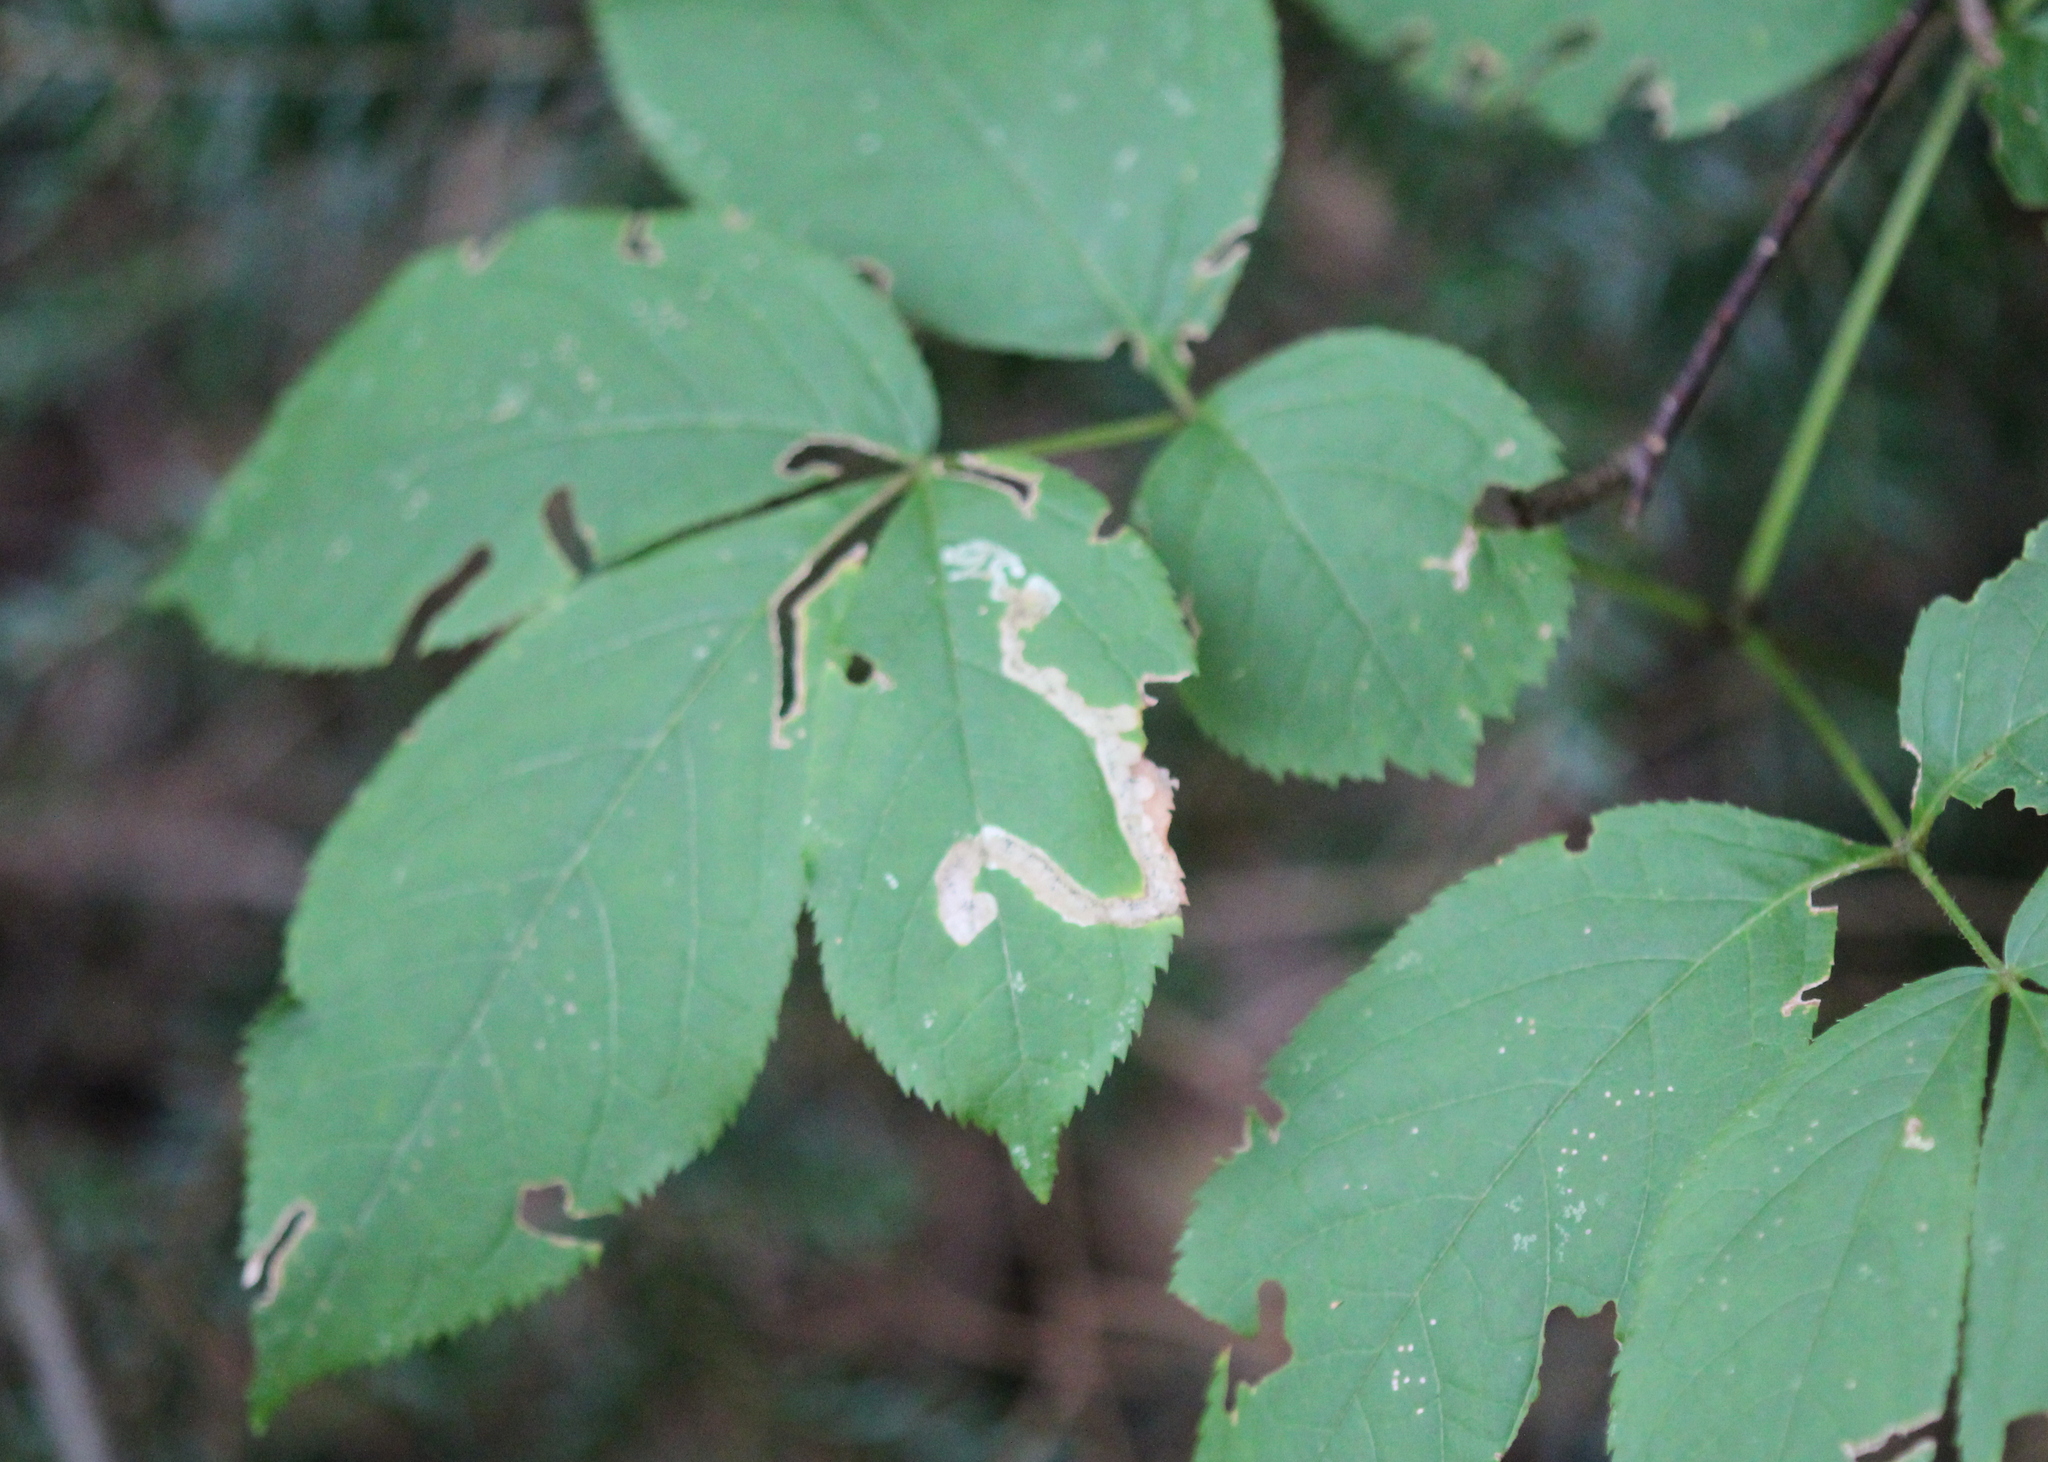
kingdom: Animalia
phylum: Arthropoda
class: Insecta
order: Diptera
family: Agromyzidae
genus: Phytomyza
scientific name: Phytomyza aralivora
